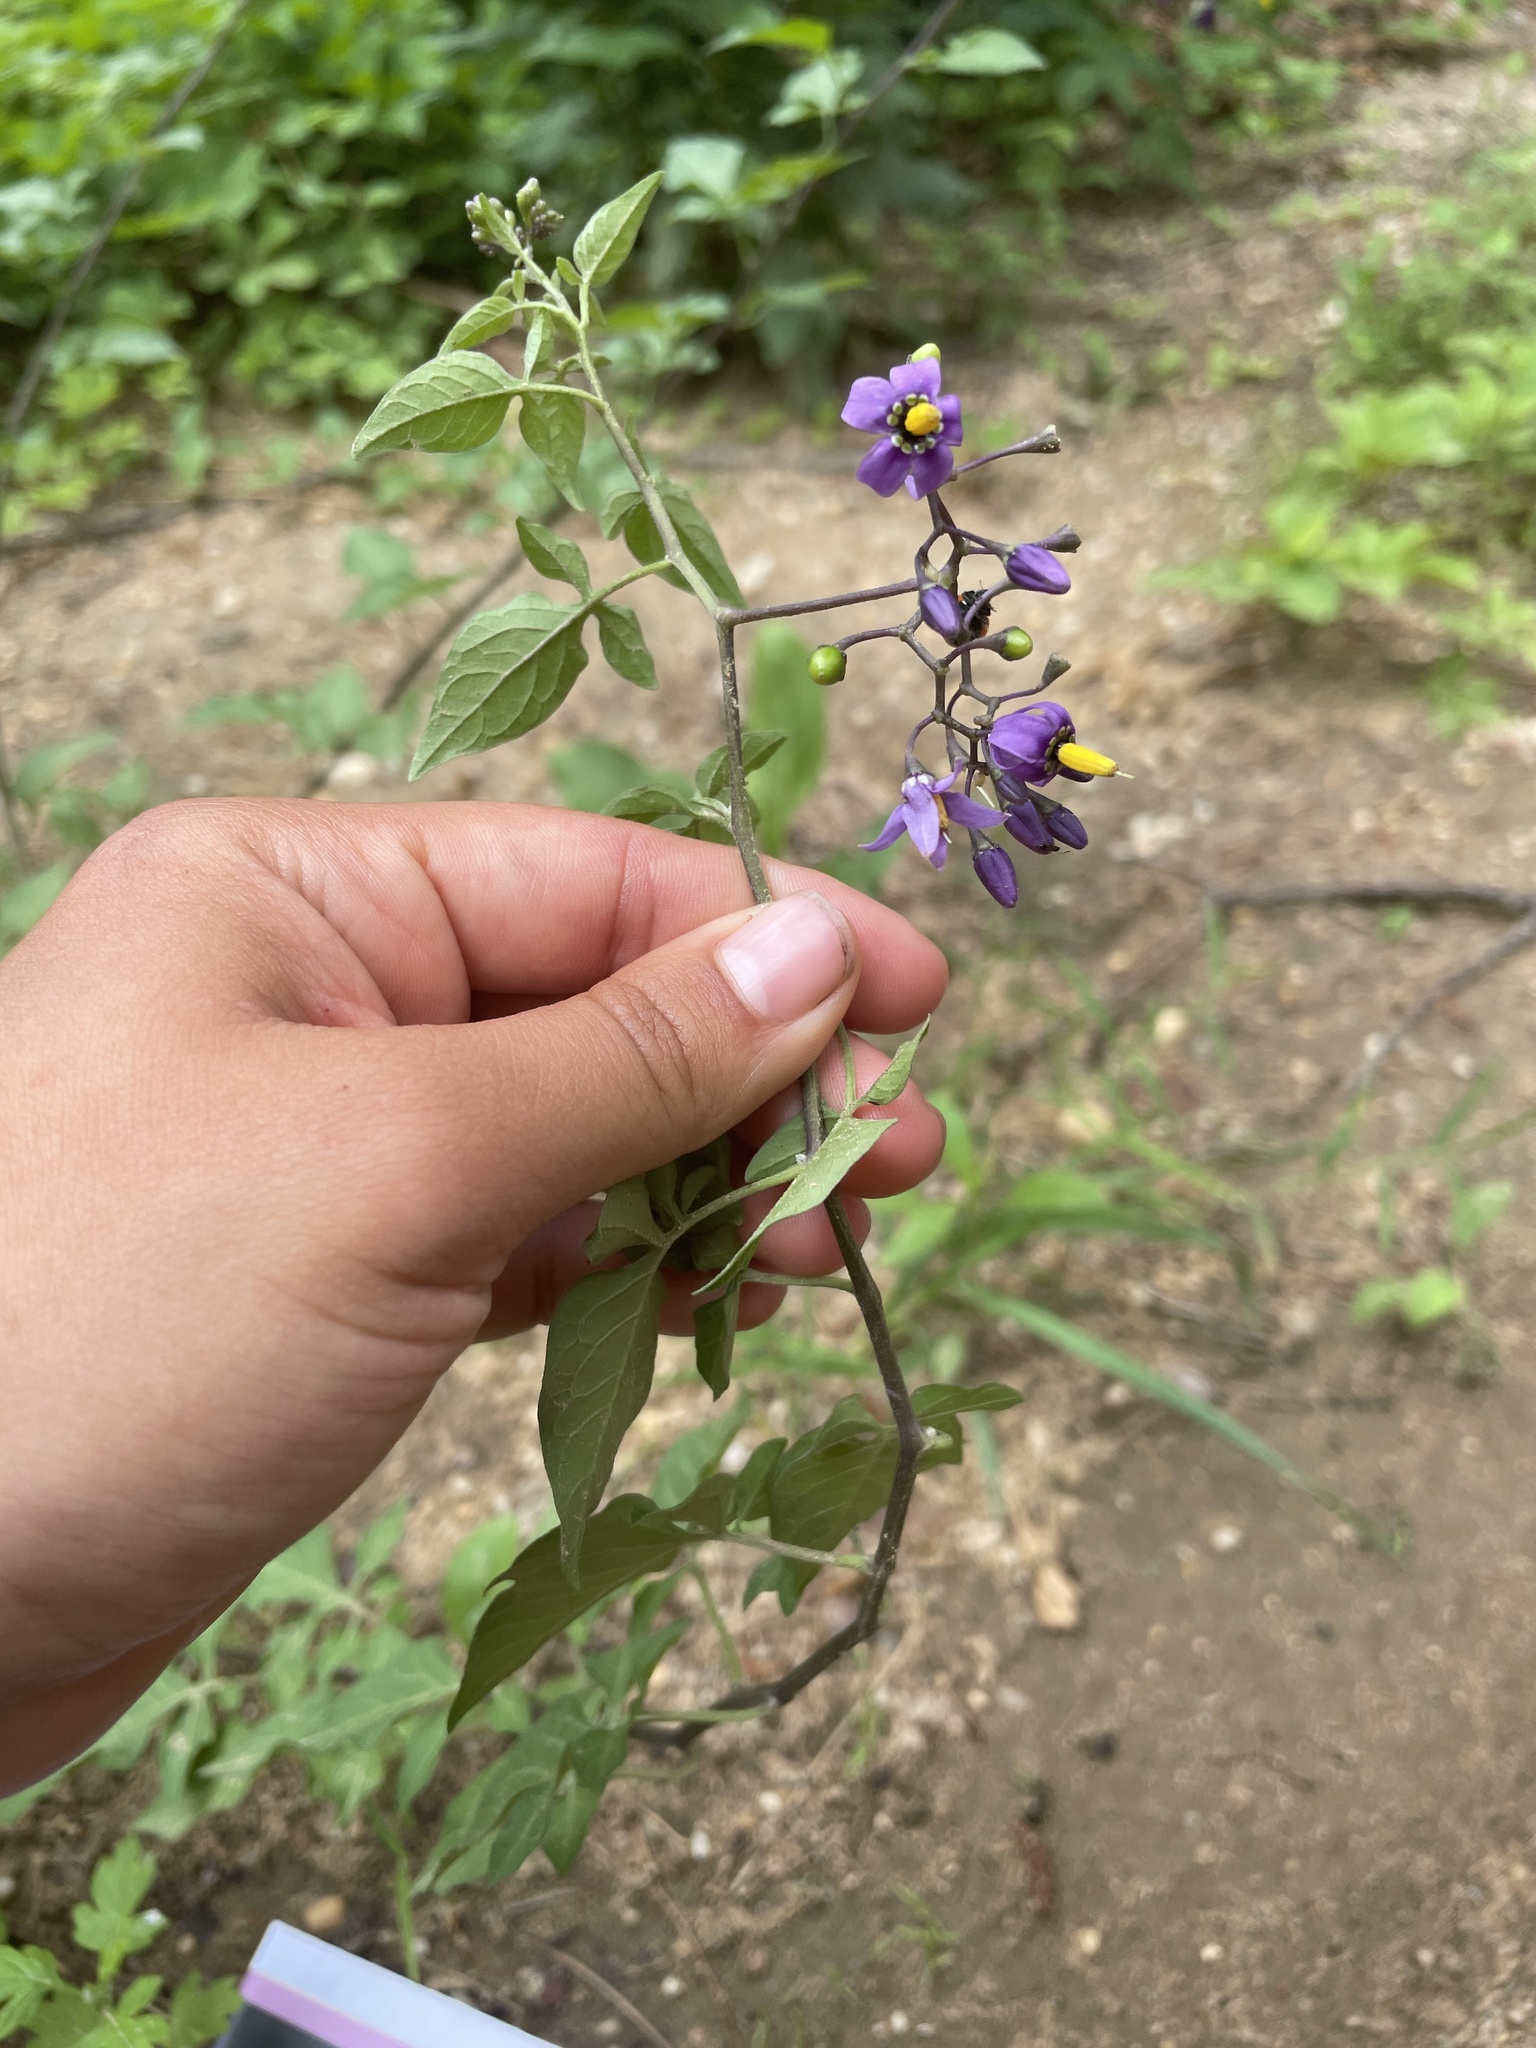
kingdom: Plantae
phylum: Tracheophyta
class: Magnoliopsida
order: Solanales
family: Solanaceae
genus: Solanum
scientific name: Solanum dulcamara
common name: Climbing nightshade
